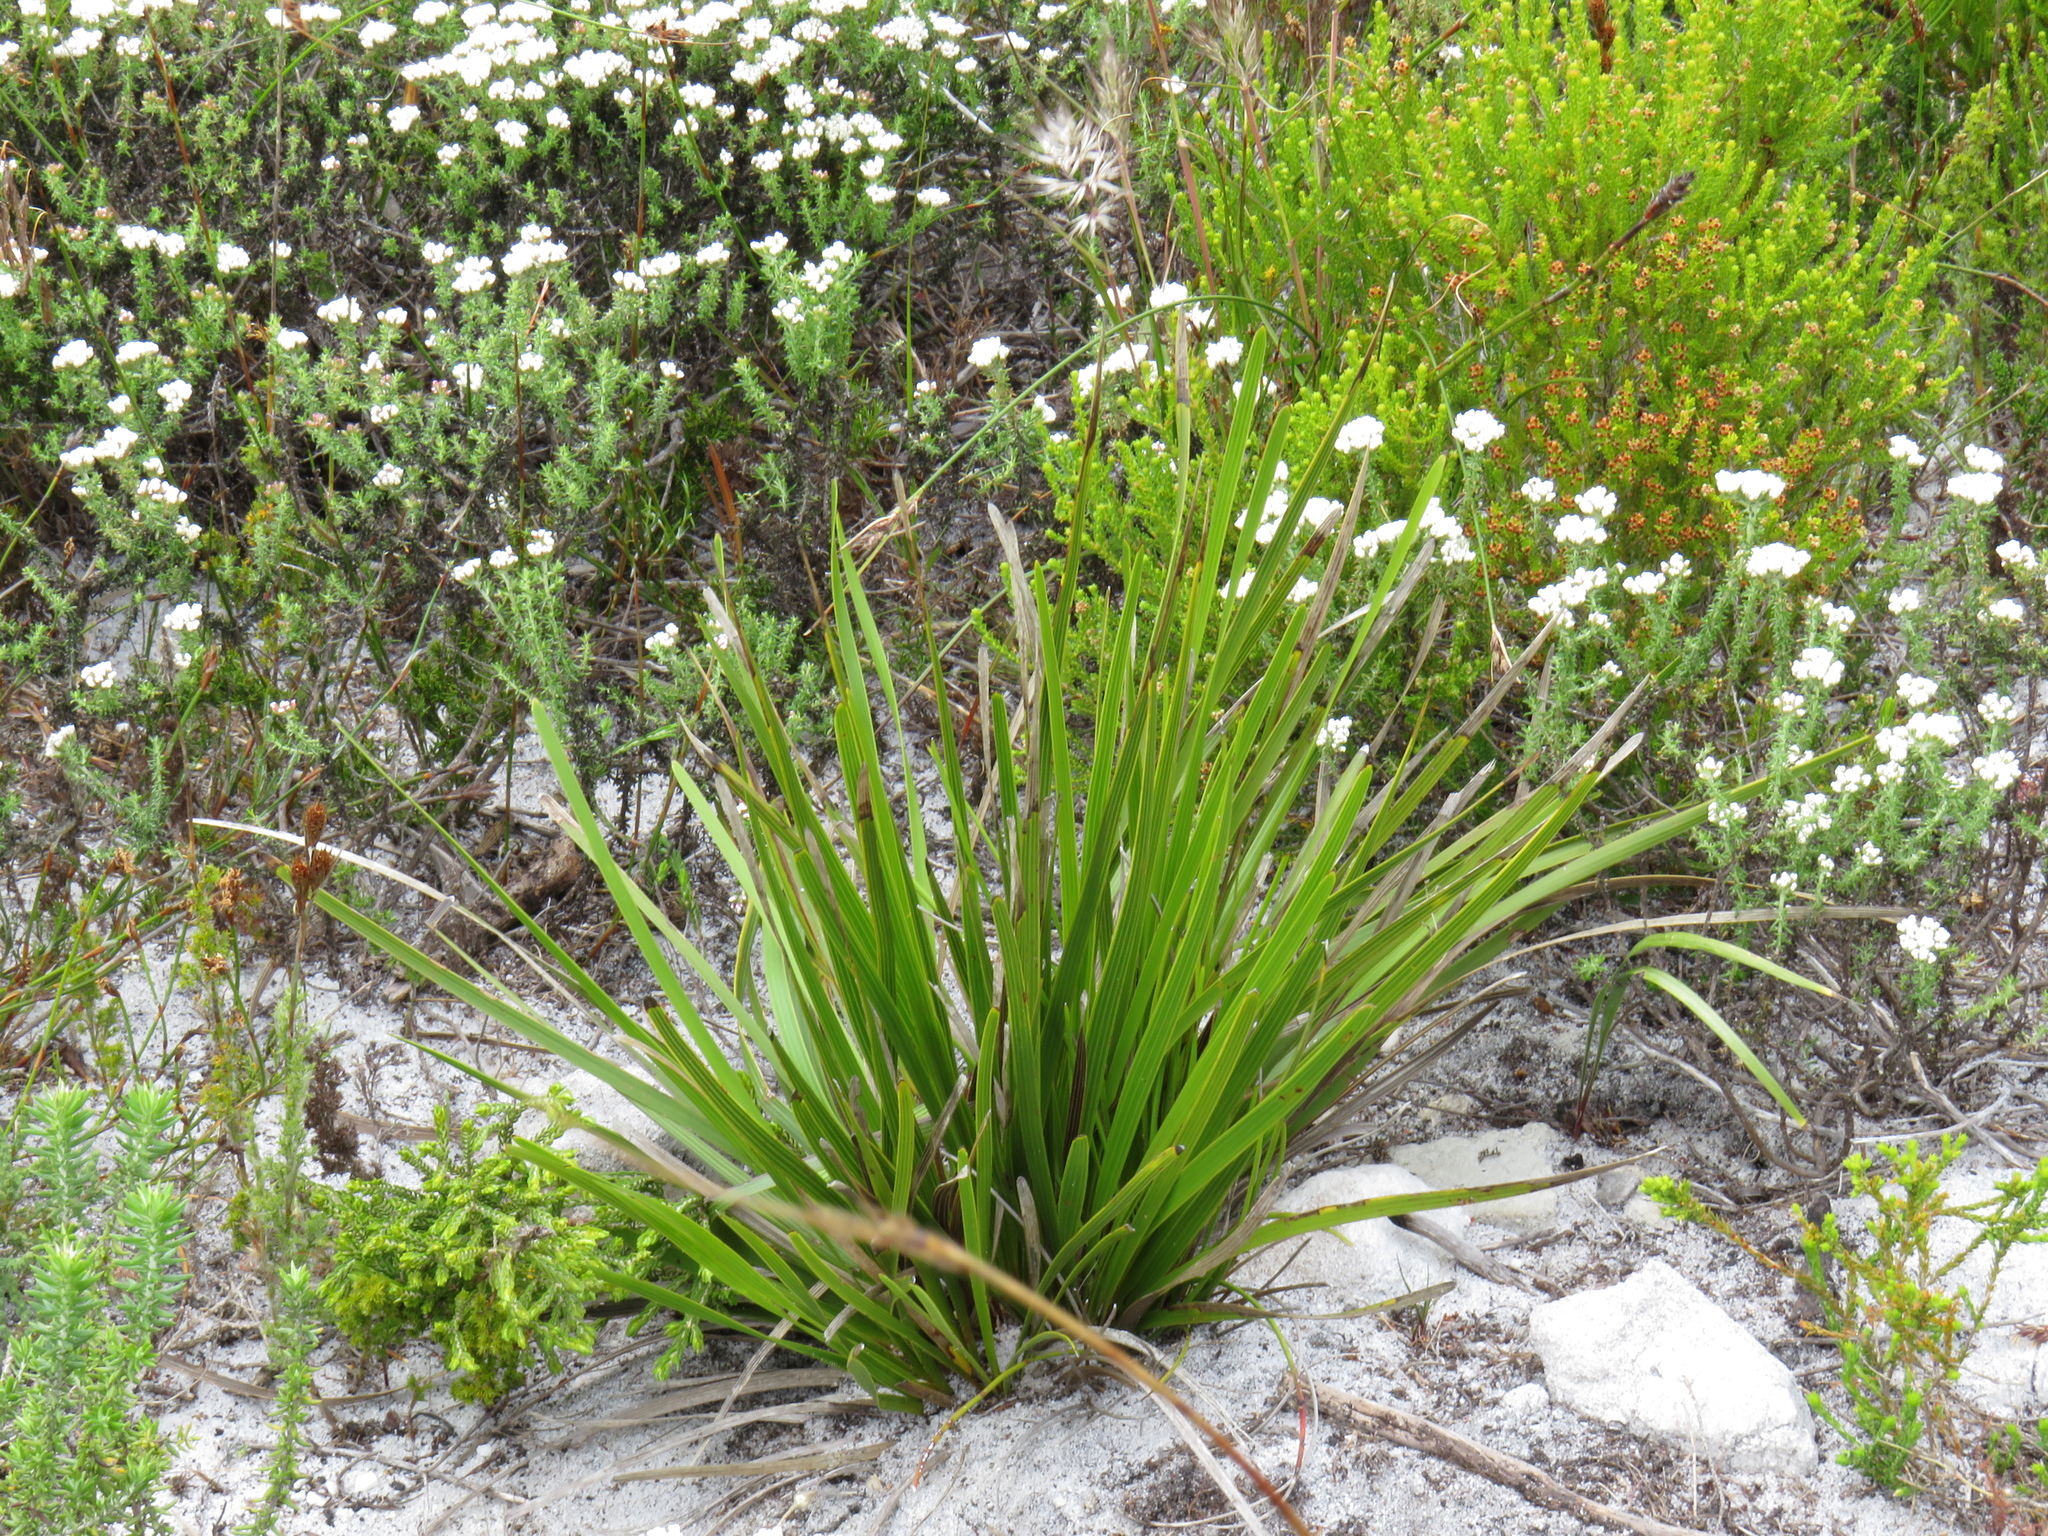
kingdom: Plantae
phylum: Tracheophyta
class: Magnoliopsida
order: Asterales
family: Asteraceae
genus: Corymbium
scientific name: Corymbium glabrum
